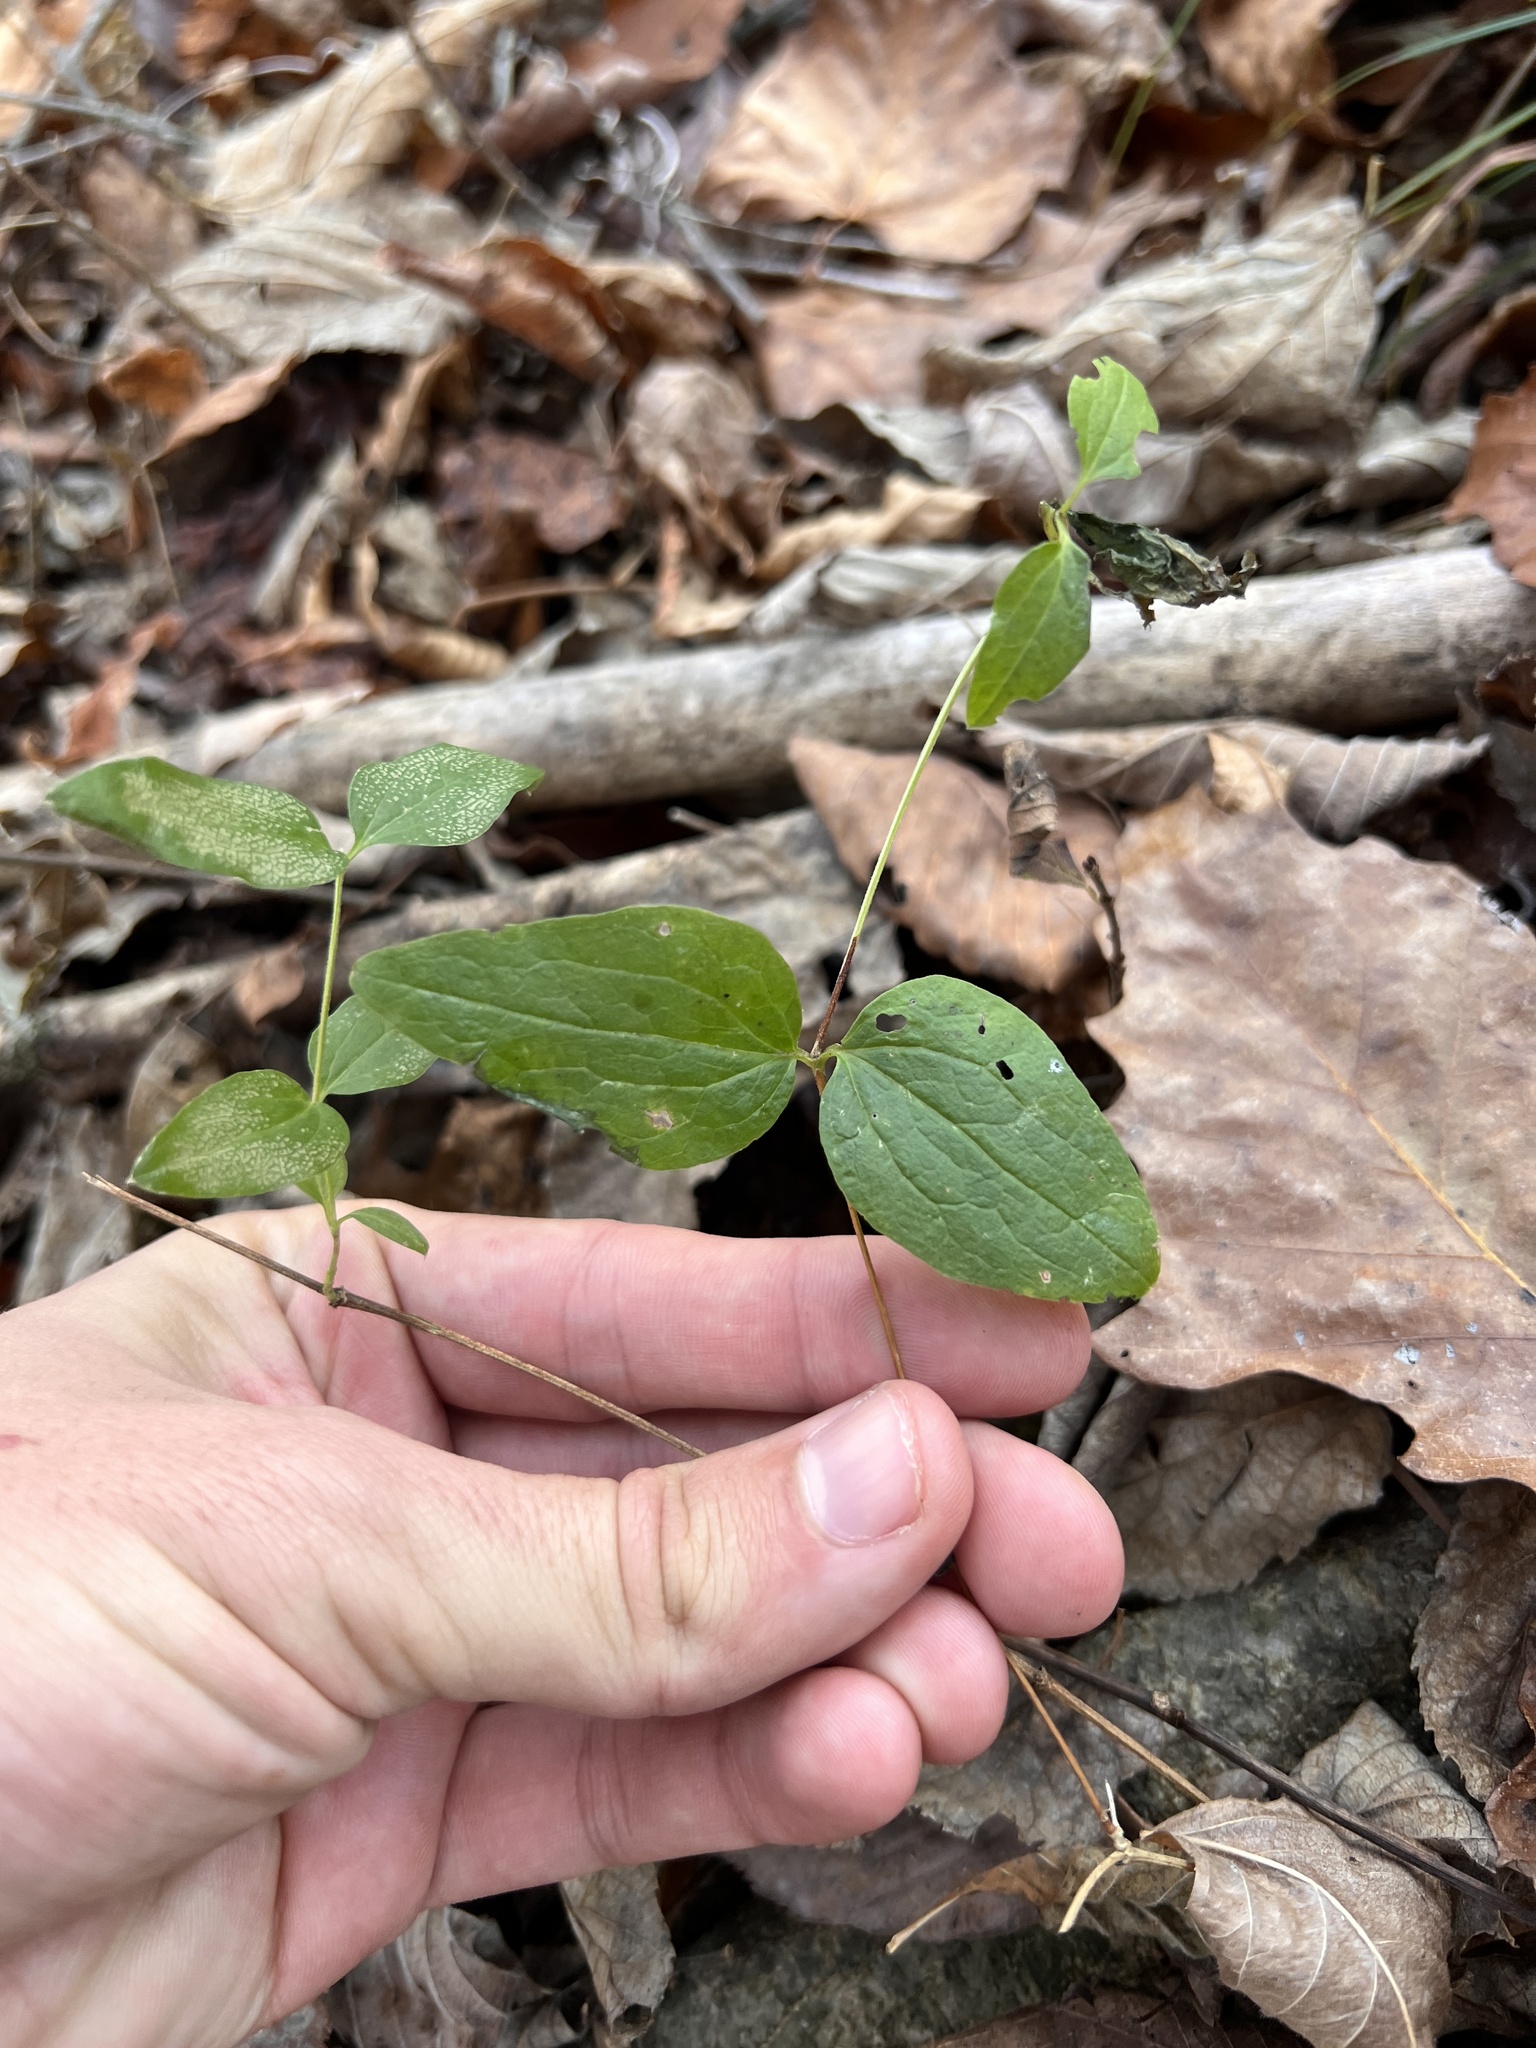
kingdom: Plantae
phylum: Tracheophyta
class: Magnoliopsida
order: Ranunculales
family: Ranunculaceae
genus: Clematis
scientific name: Clematis pitcheri
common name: Bellflower clematis
